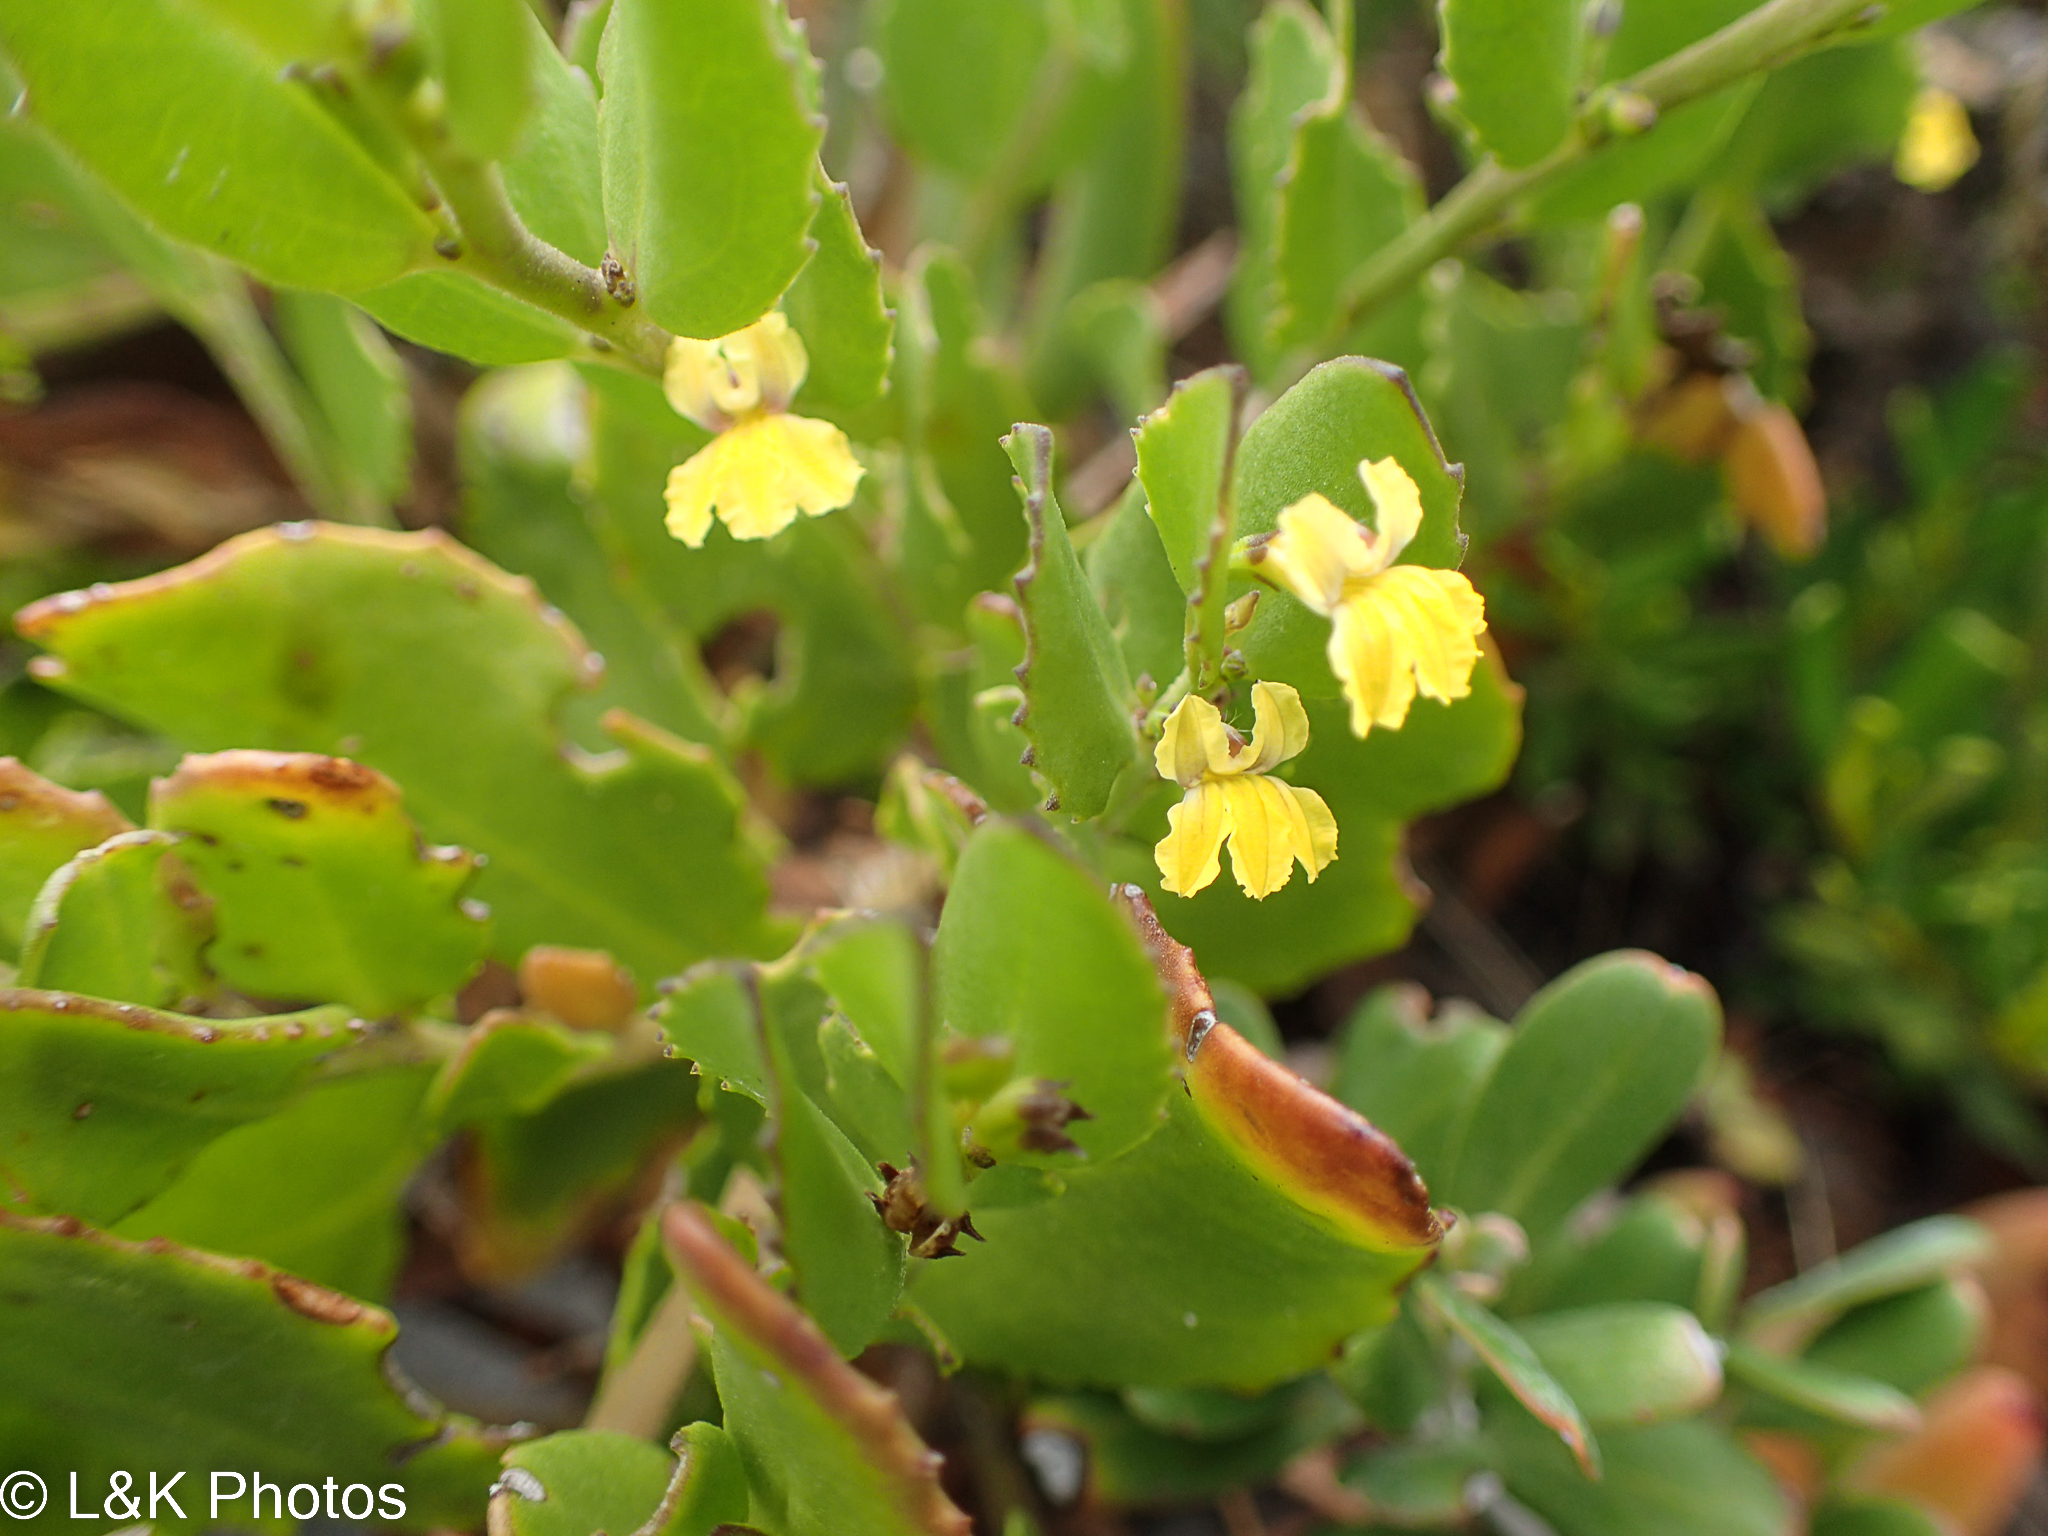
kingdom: Plantae
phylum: Tracheophyta
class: Magnoliopsida
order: Asterales
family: Goodeniaceae
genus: Goodenia
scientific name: Goodenia varia
